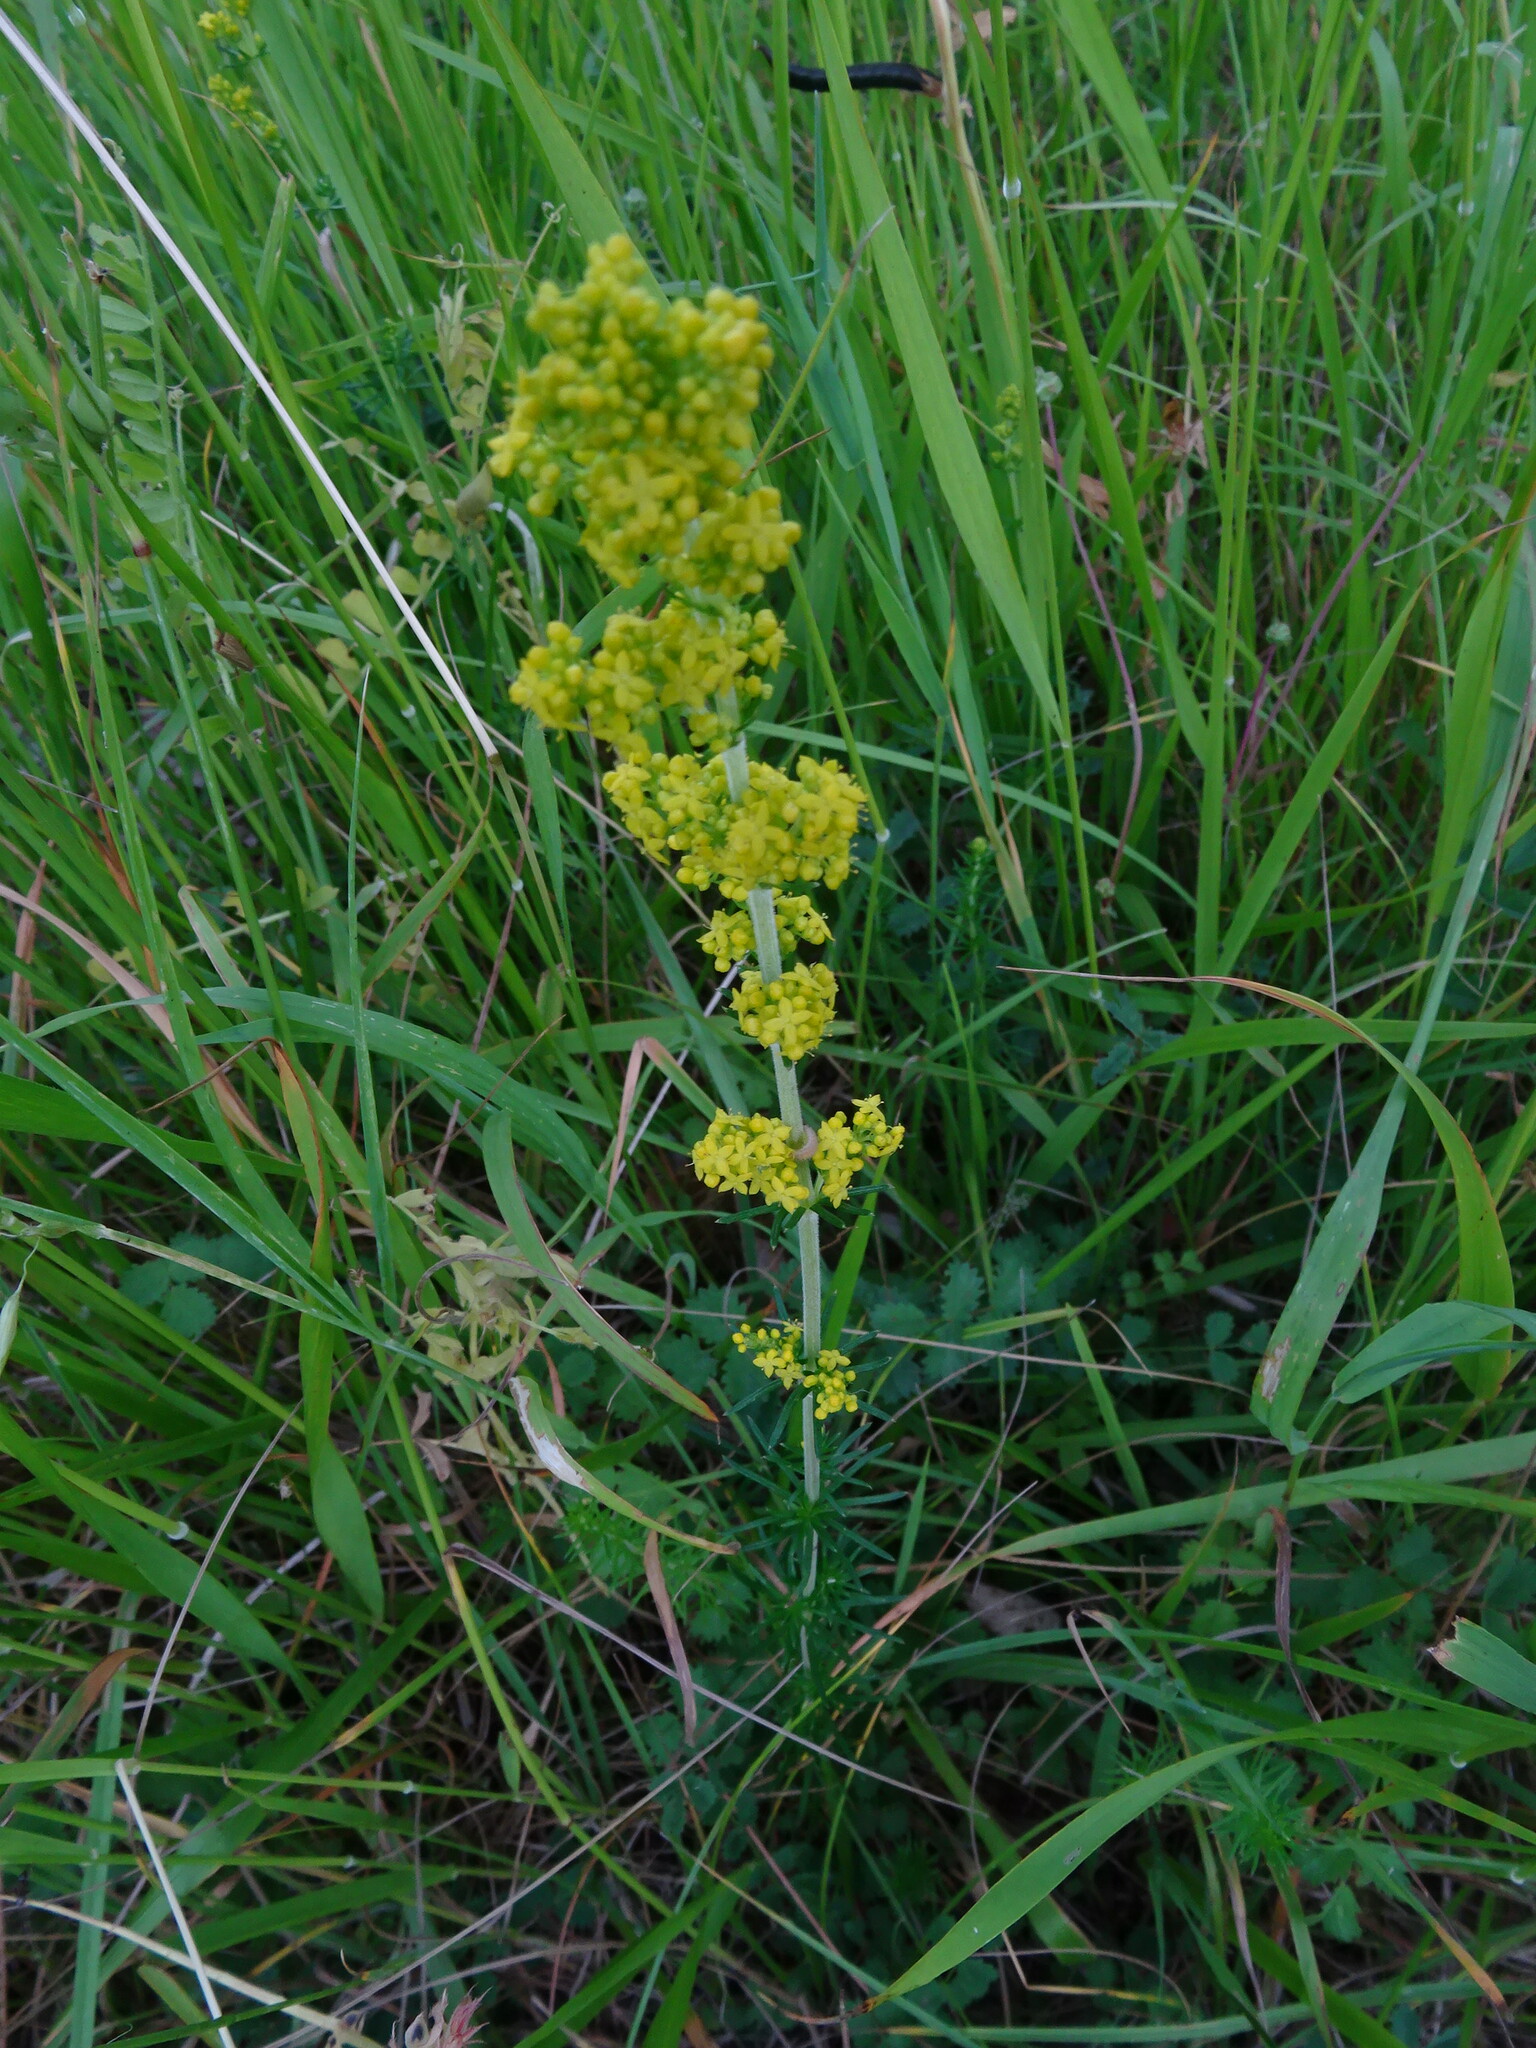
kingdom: Plantae
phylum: Tracheophyta
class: Magnoliopsida
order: Gentianales
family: Rubiaceae
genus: Galium
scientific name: Galium verum
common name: Lady's bedstraw
